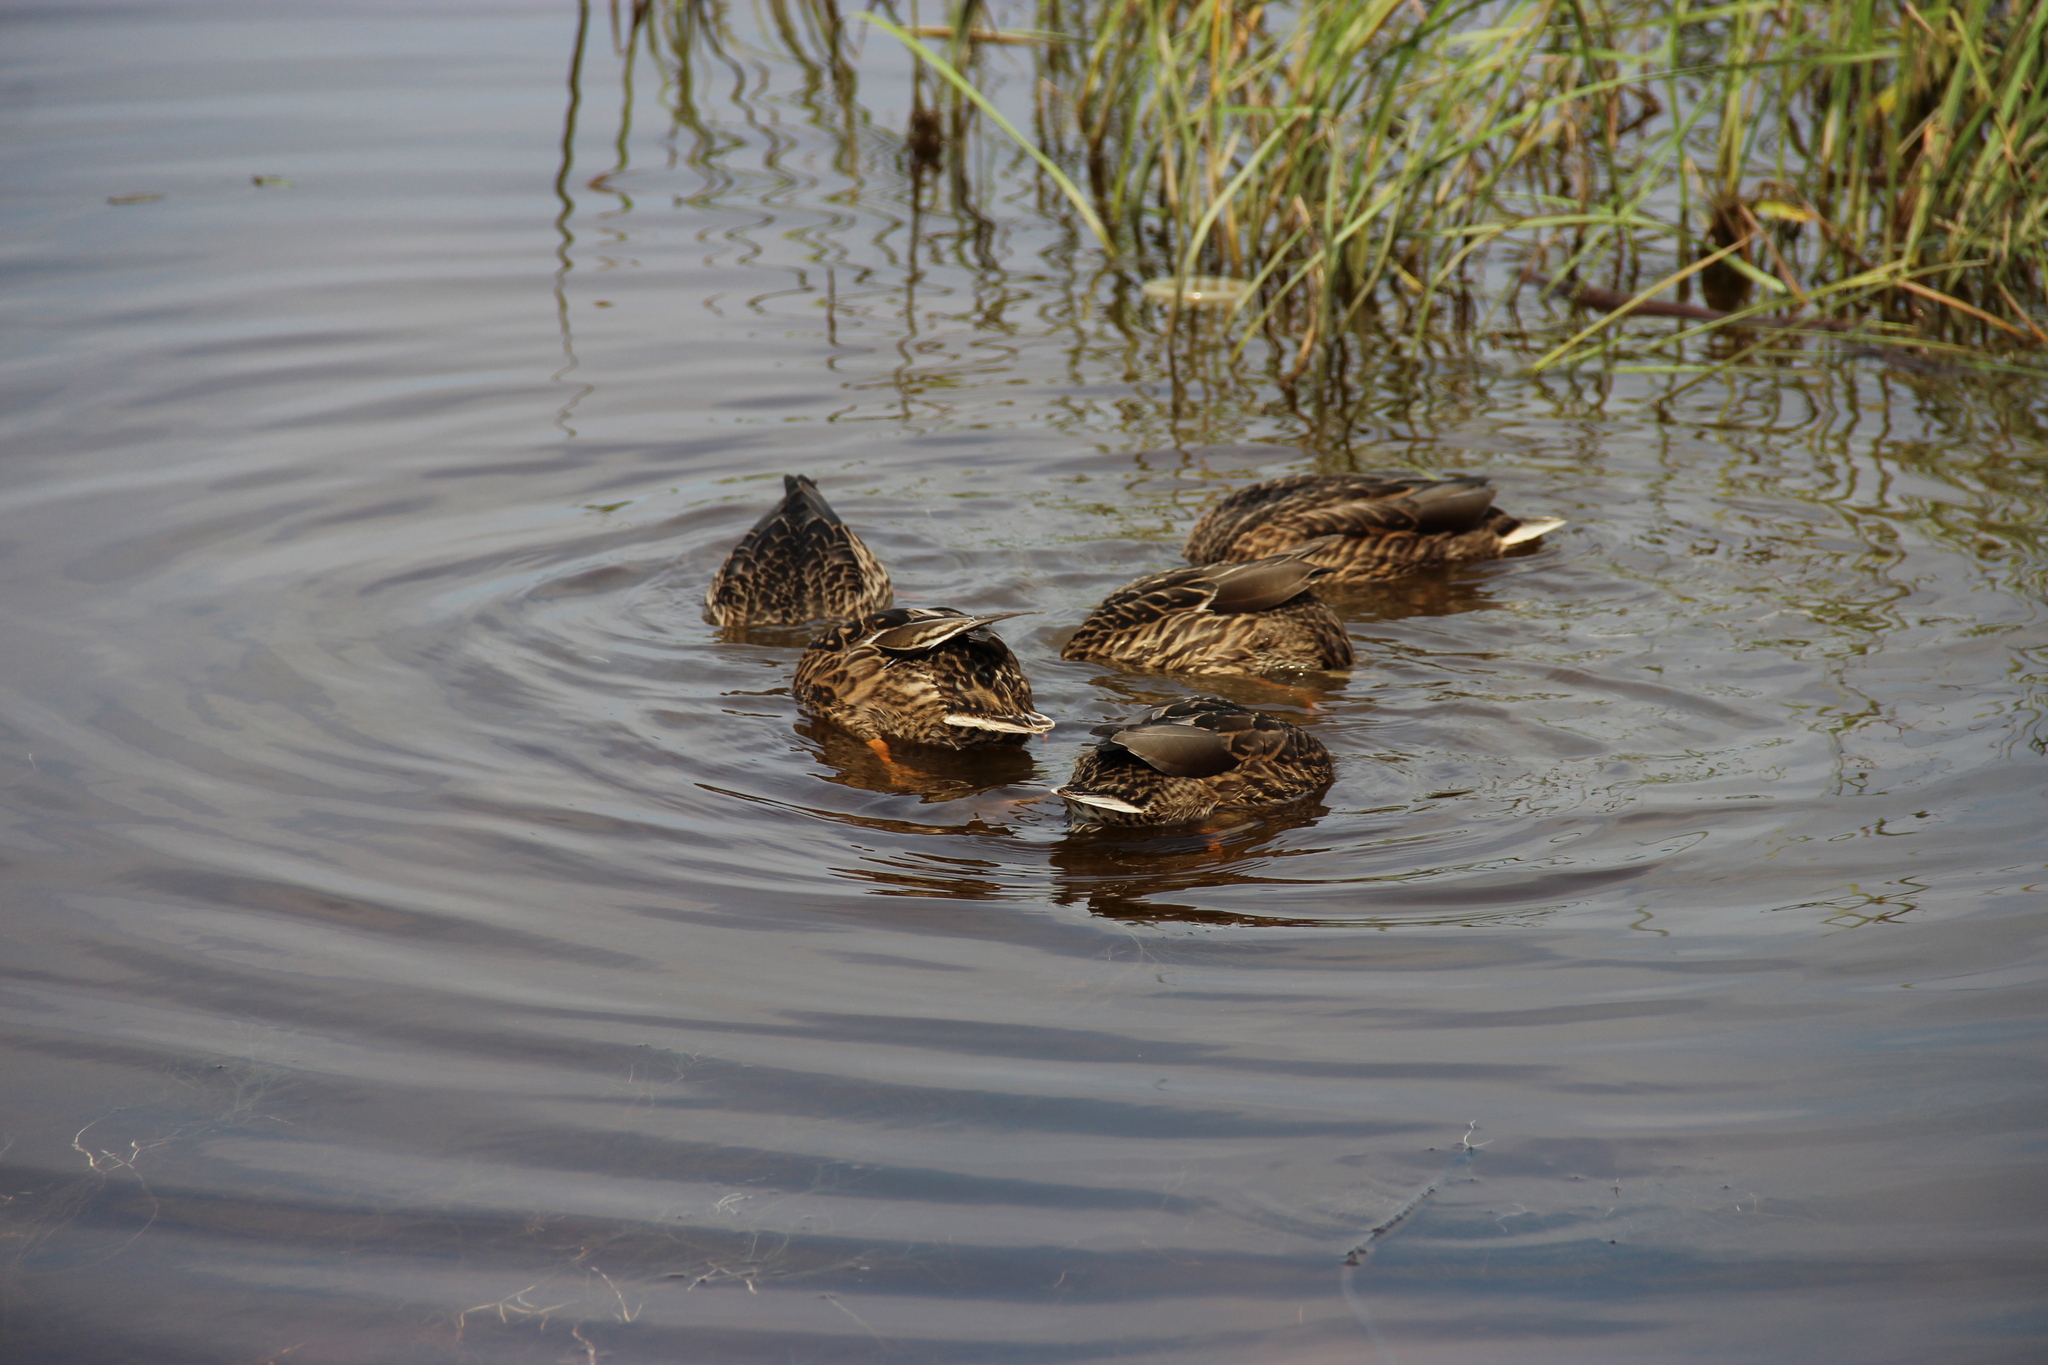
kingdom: Animalia
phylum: Chordata
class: Aves
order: Anseriformes
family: Anatidae
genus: Anas
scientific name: Anas platyrhynchos
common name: Mallard
